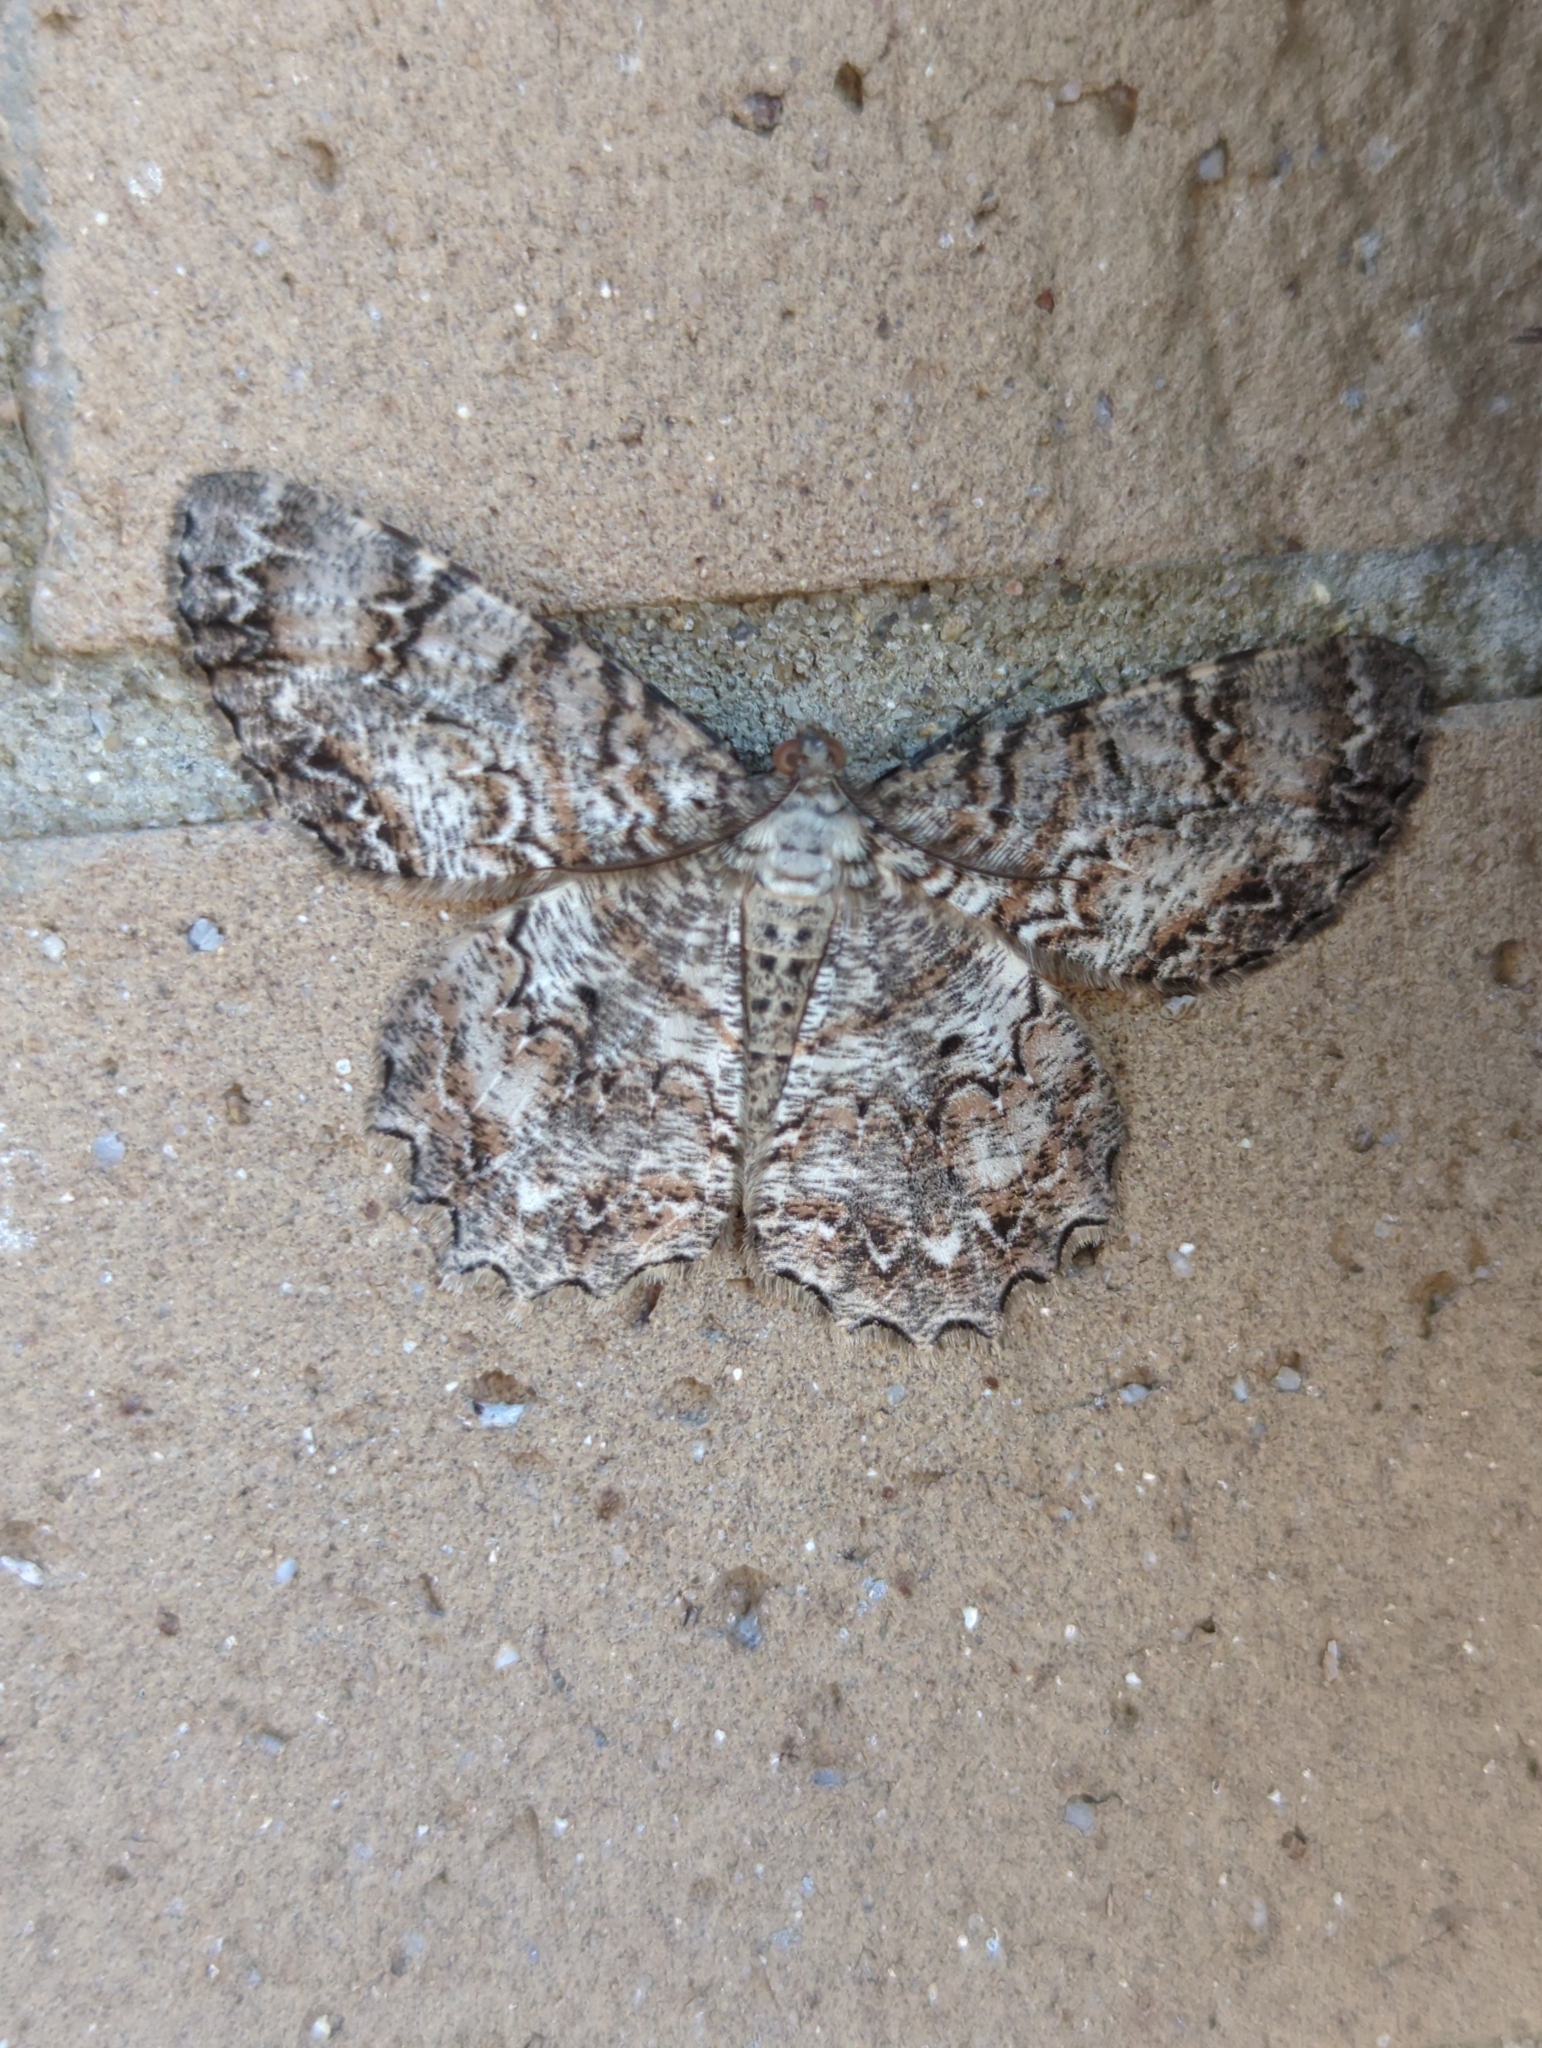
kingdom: Animalia
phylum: Arthropoda
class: Insecta
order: Lepidoptera
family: Geometridae
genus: Epimecis
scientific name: Epimecis hortaria
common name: Tulip-tree beauty
